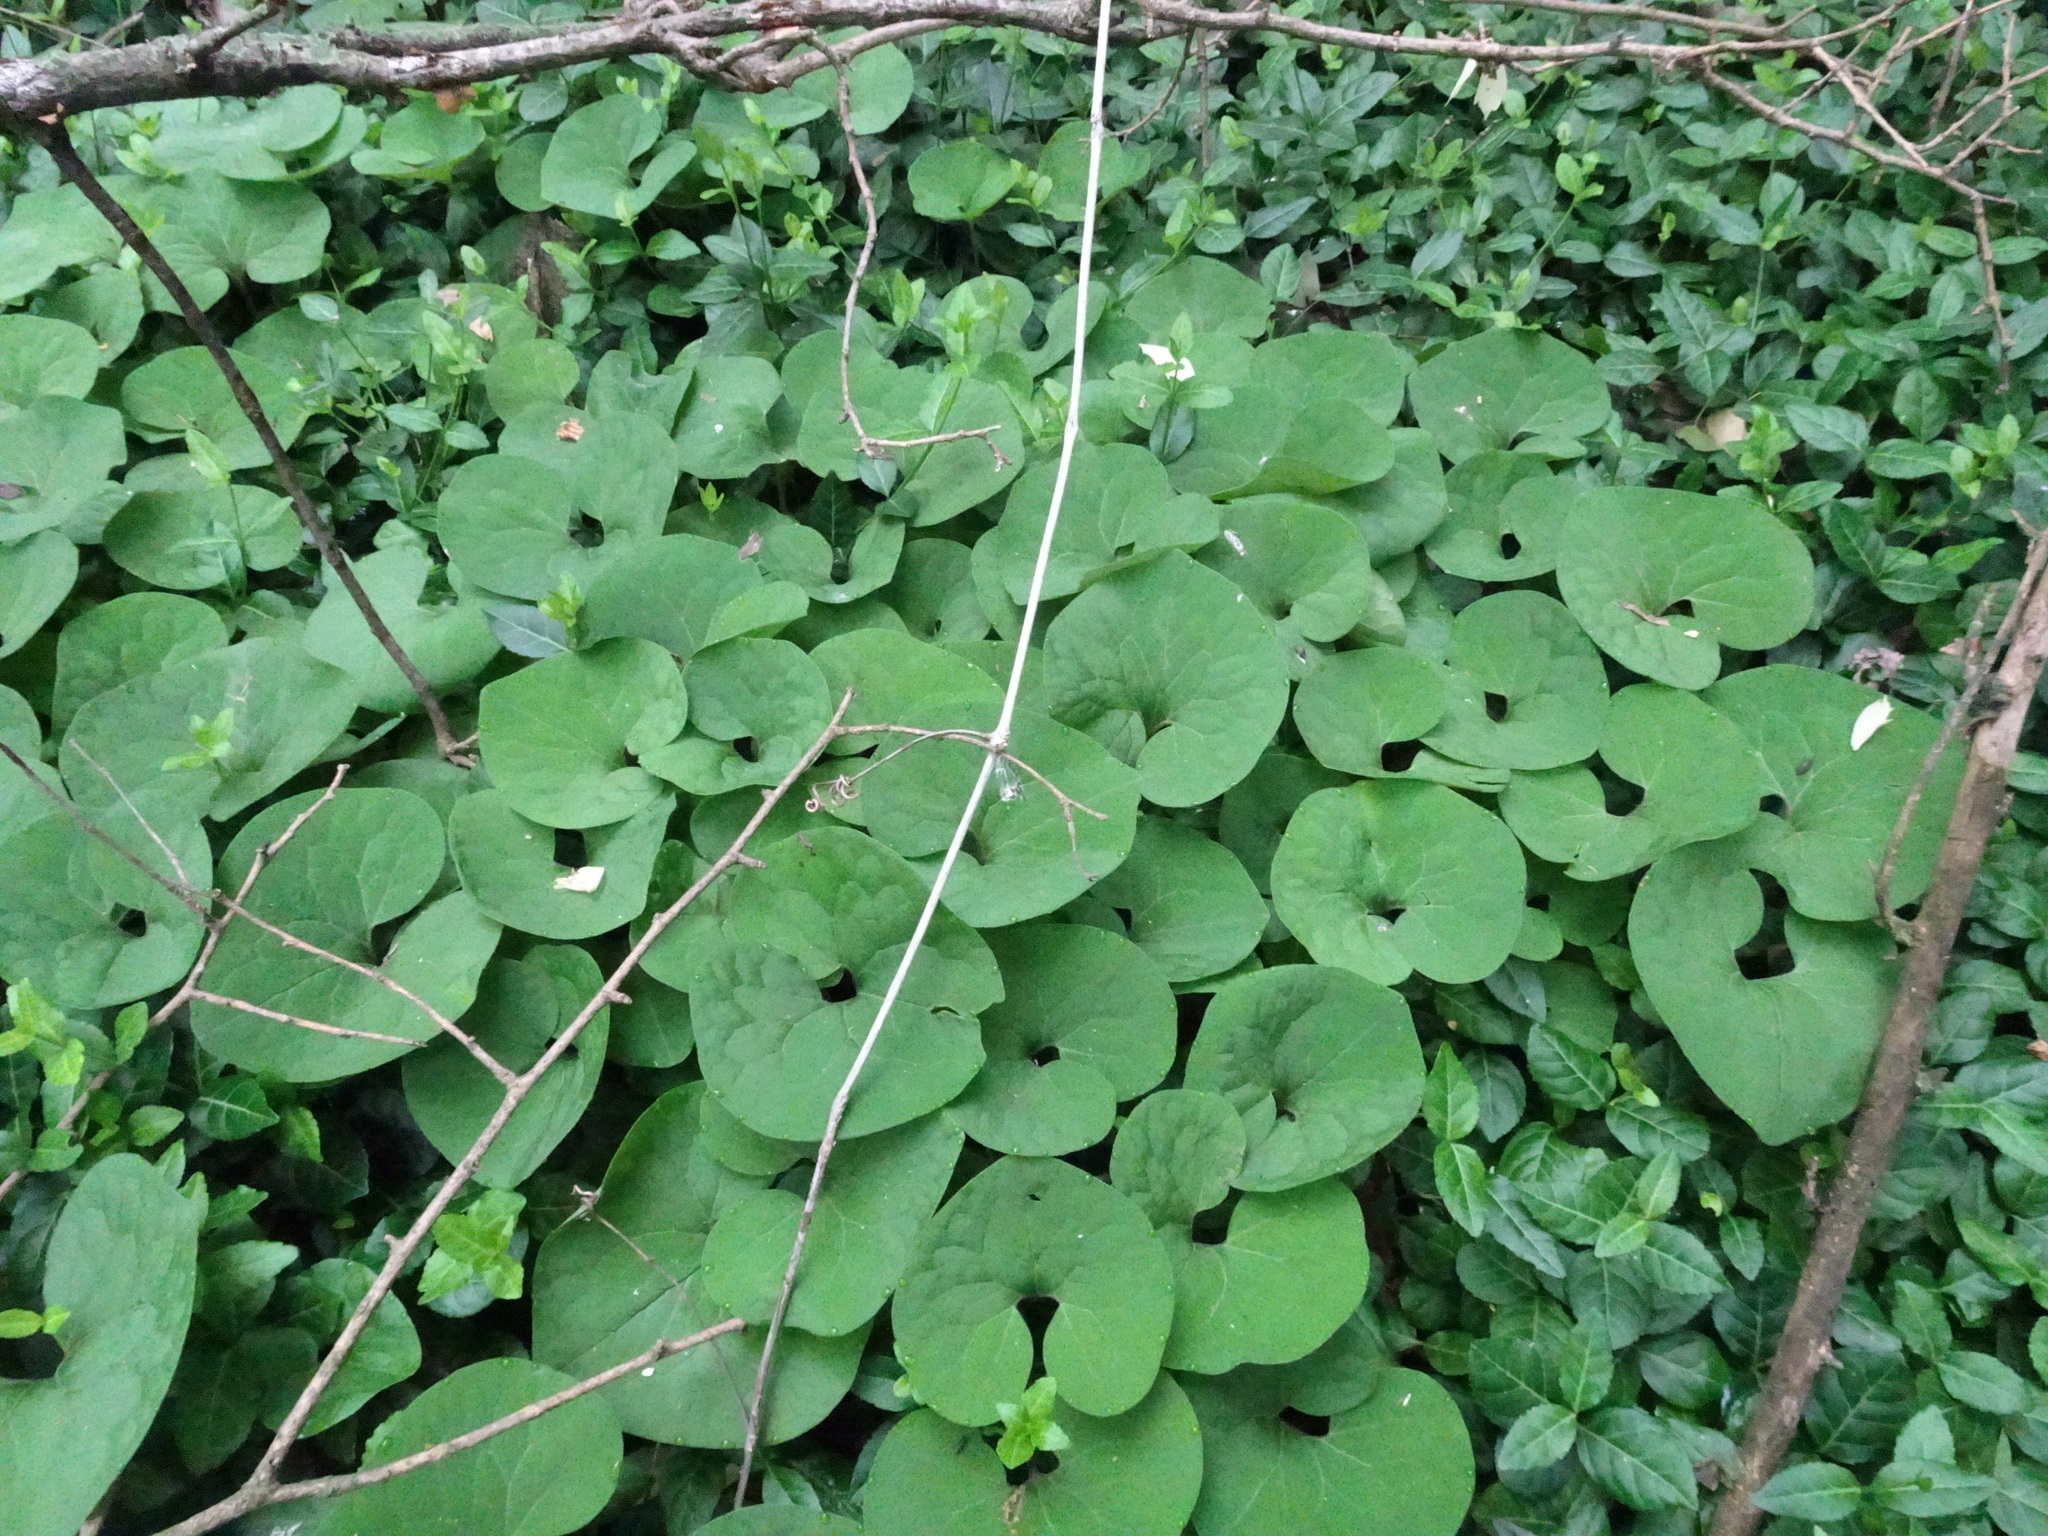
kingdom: Plantae
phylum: Tracheophyta
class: Magnoliopsida
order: Piperales
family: Aristolochiaceae
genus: Asarum
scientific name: Asarum canadense
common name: Wild ginger
